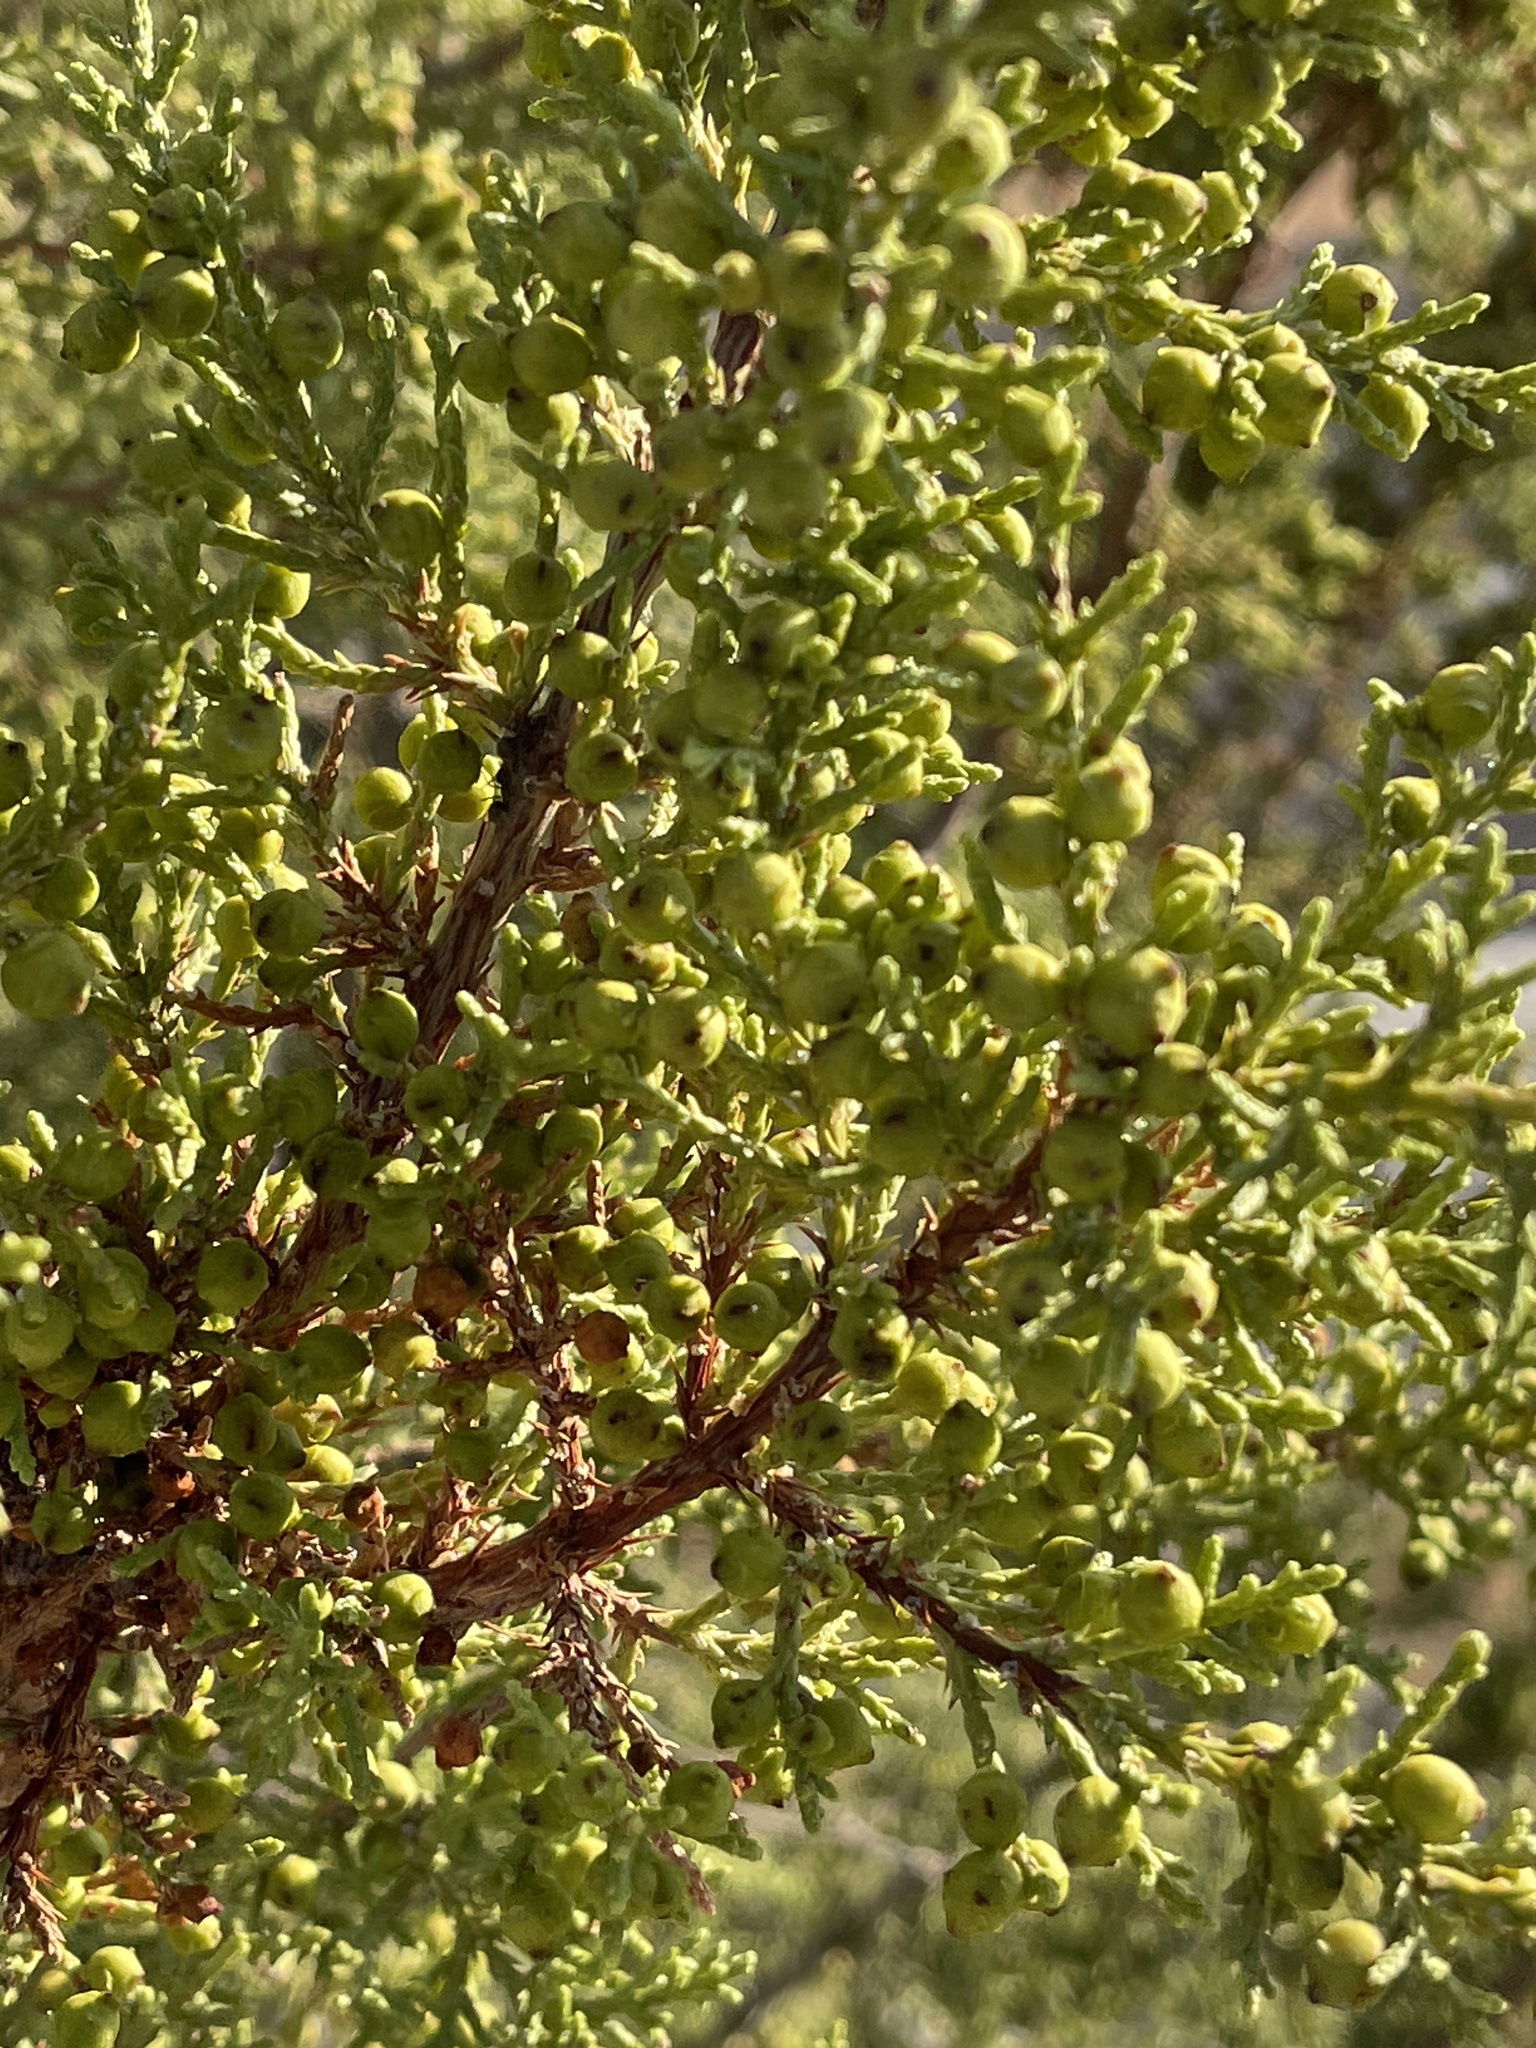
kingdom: Plantae
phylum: Tracheophyta
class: Pinopsida
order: Pinales
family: Cupressaceae
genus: Juniperus
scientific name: Juniperus pinchotii
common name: Pinchot juniper
